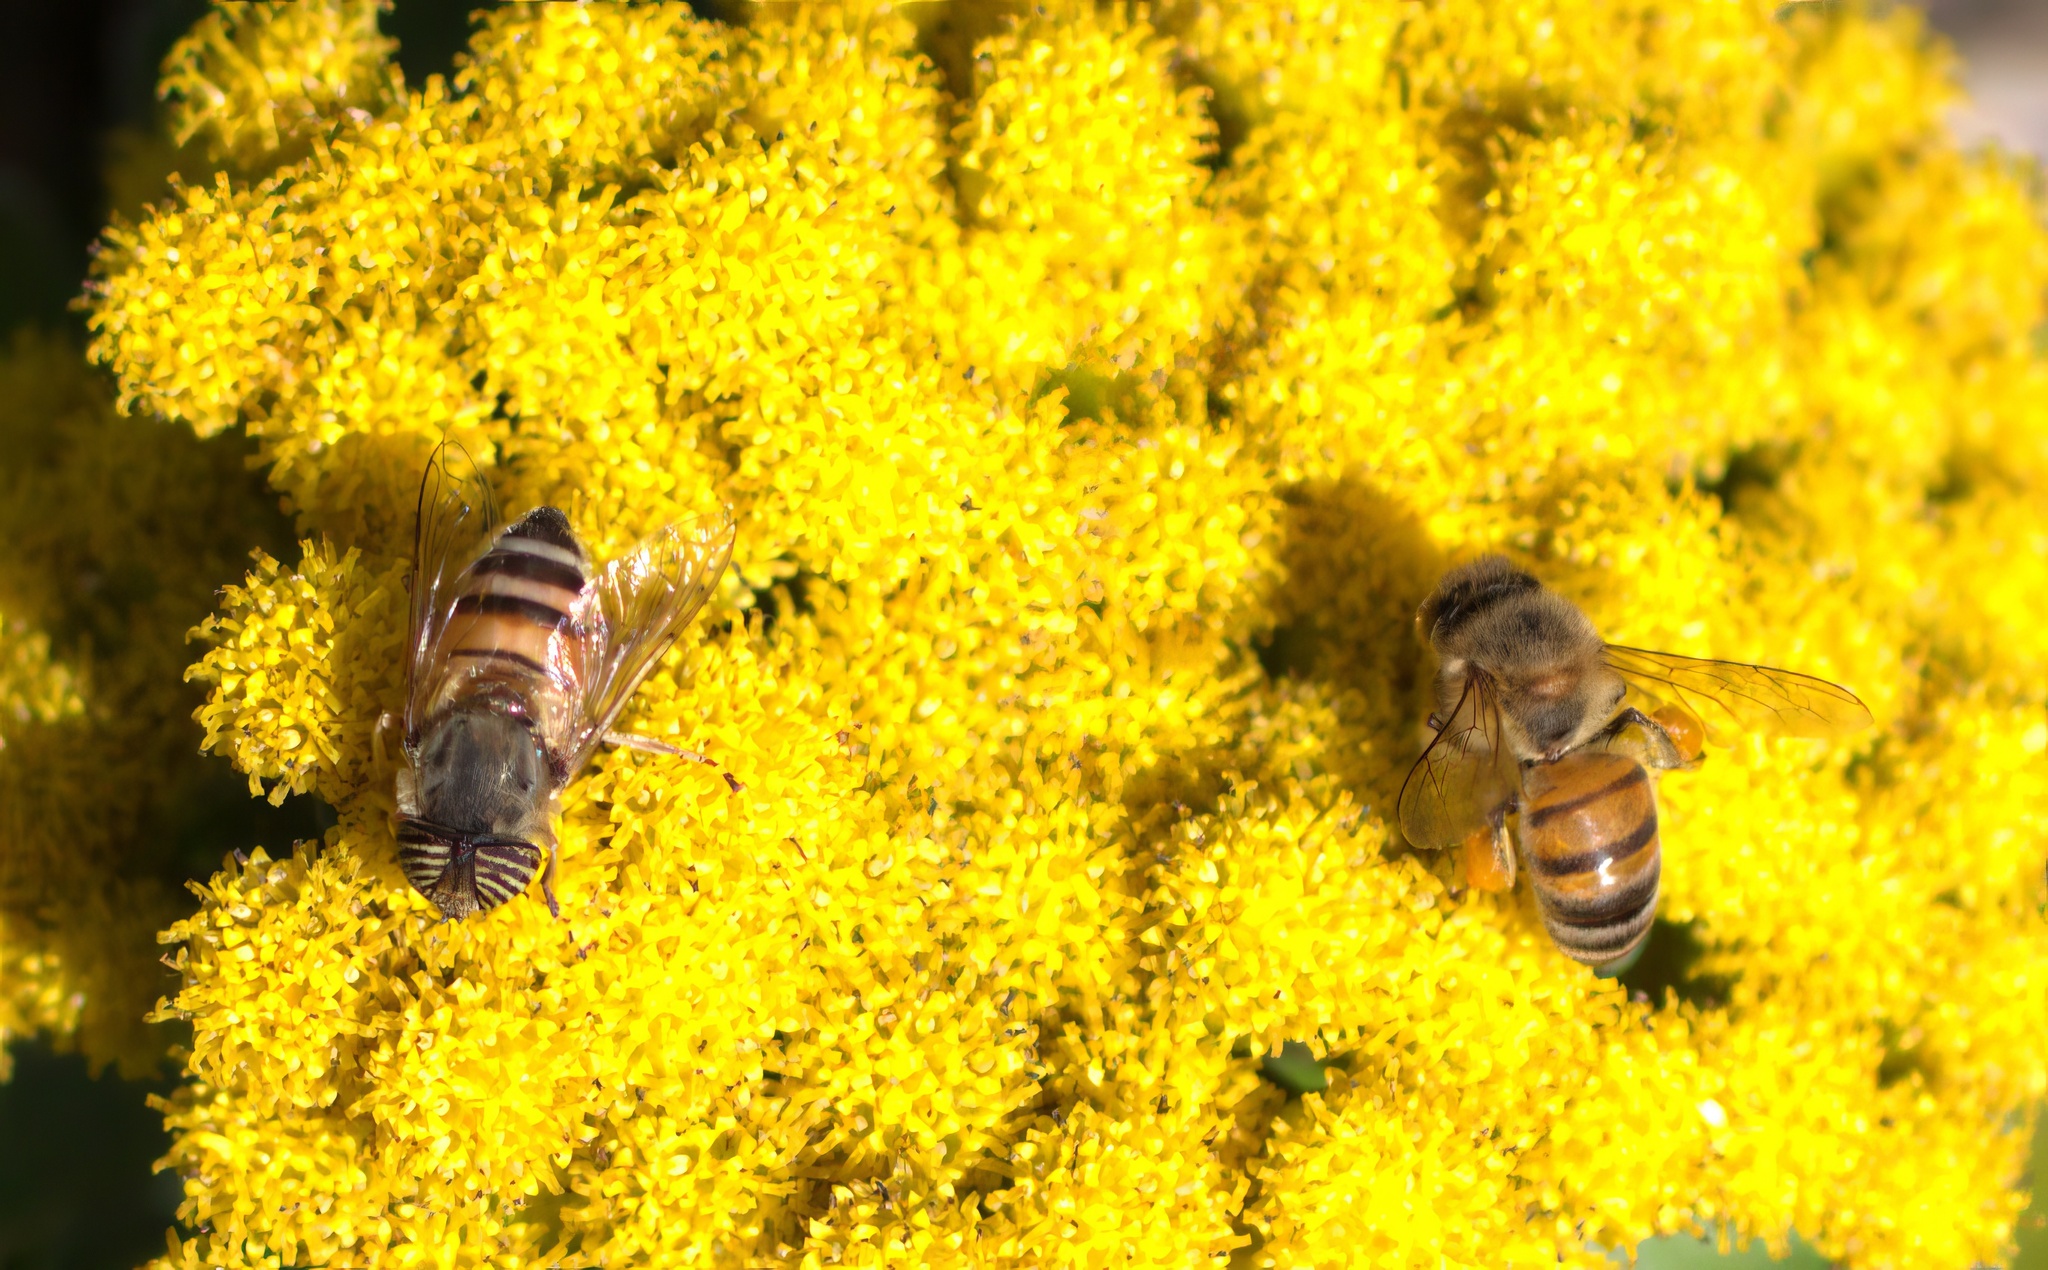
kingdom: Animalia
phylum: Arthropoda
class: Insecta
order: Diptera
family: Syrphidae
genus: Eristalinus
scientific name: Eristalinus taeniops
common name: Syrphid fly
